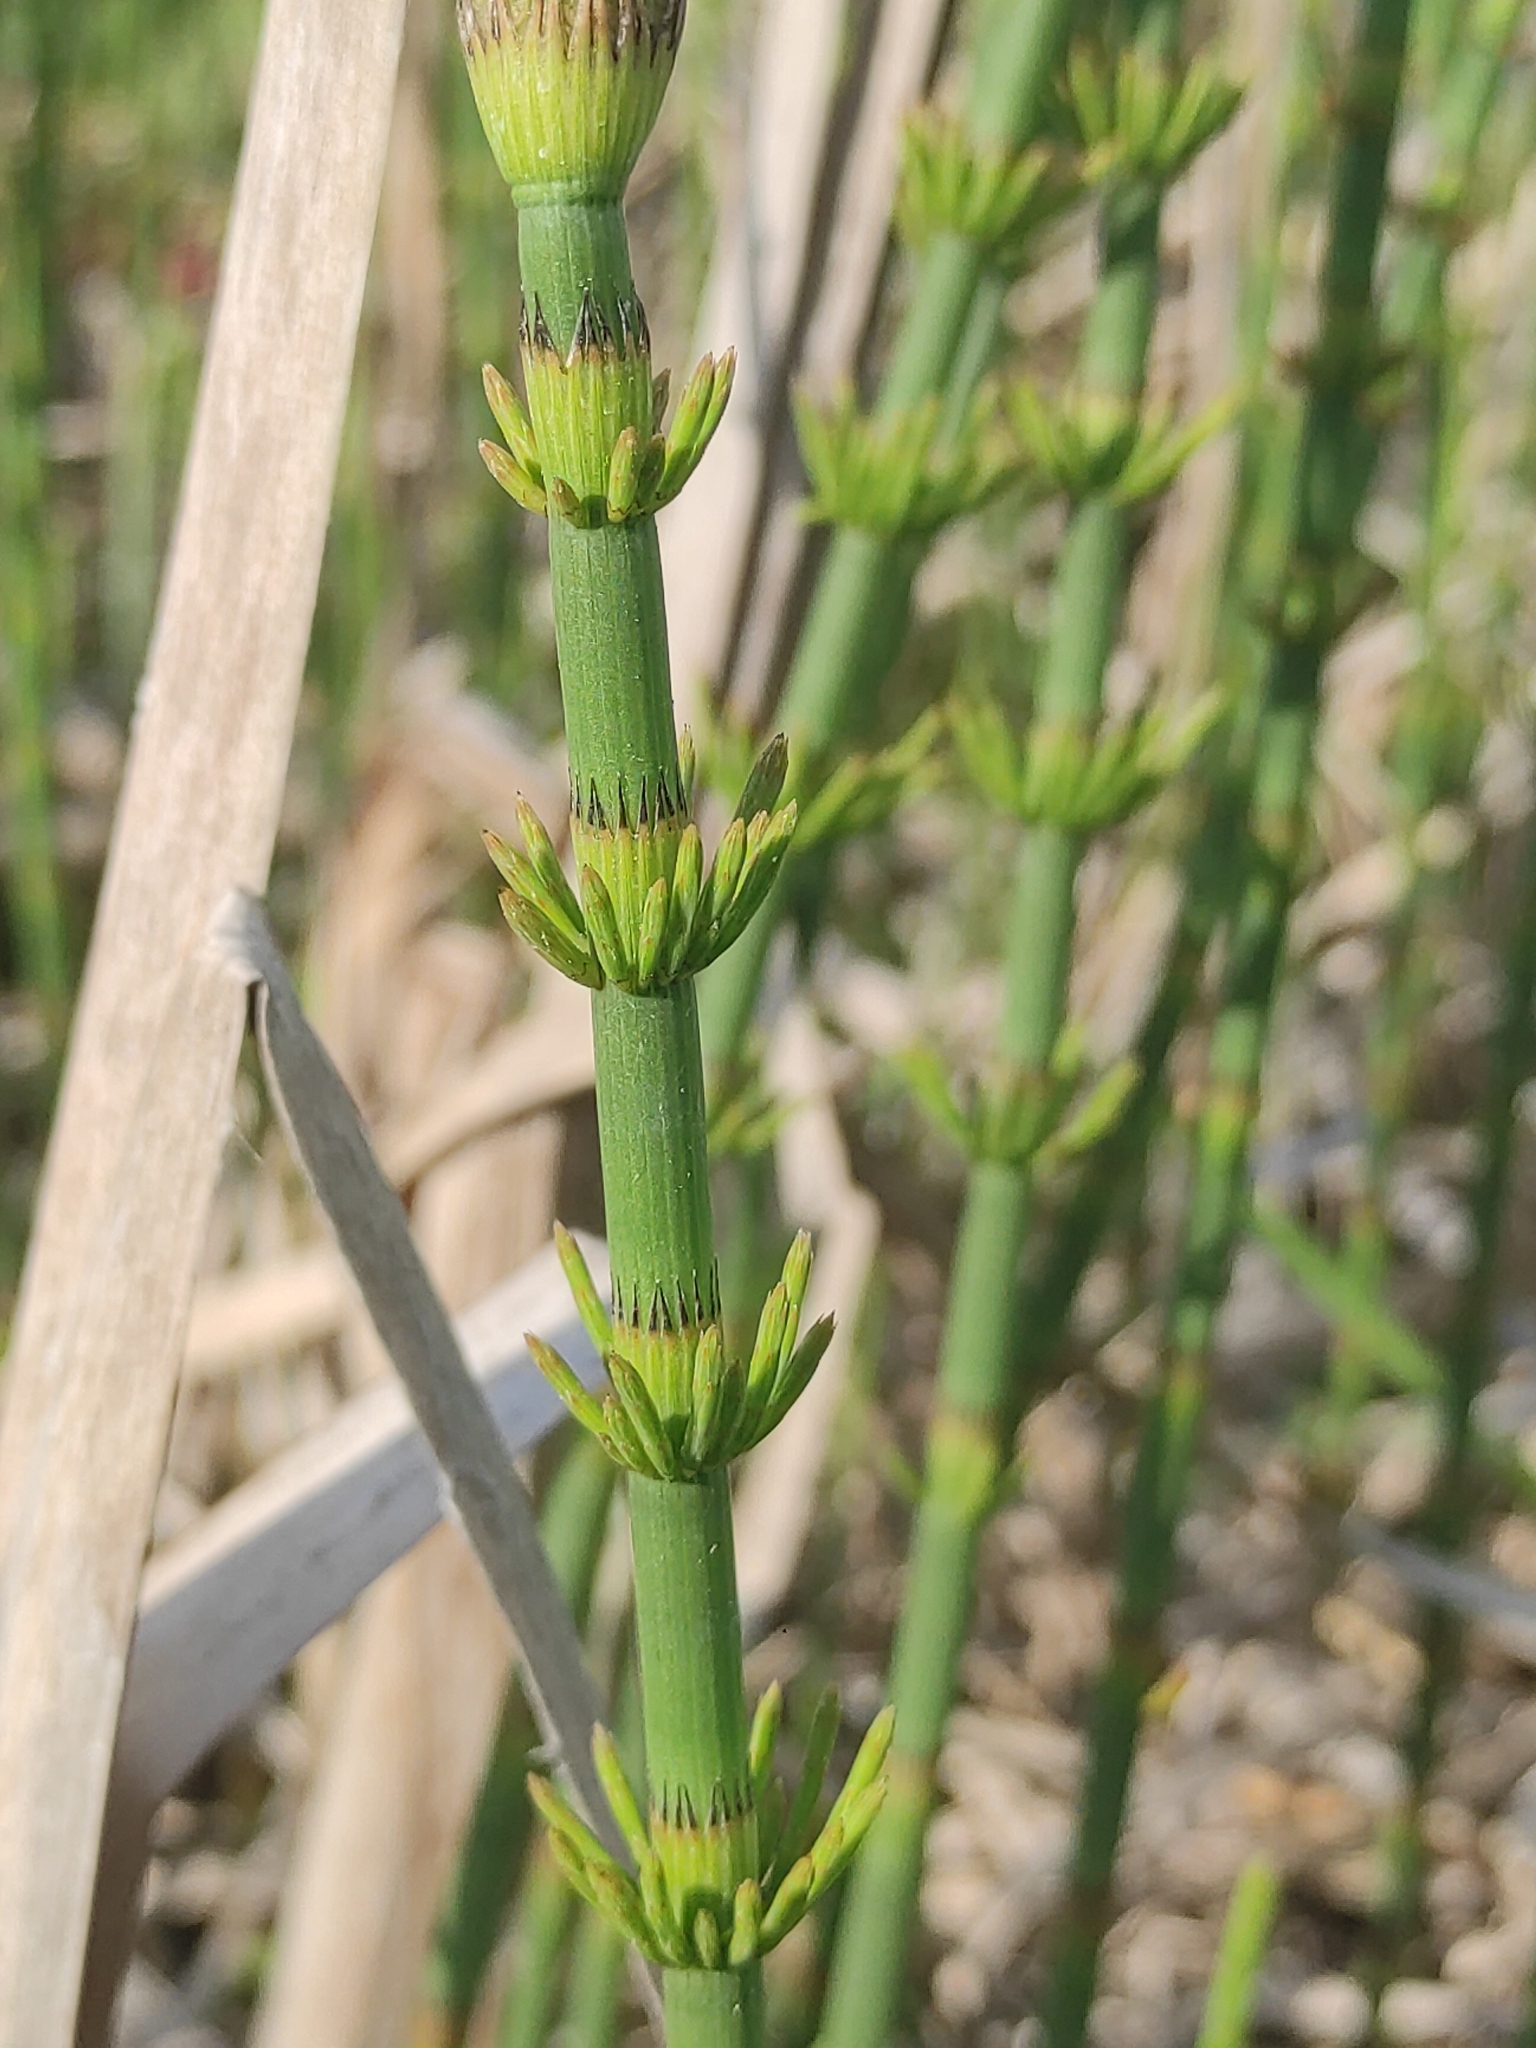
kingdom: Plantae
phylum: Tracheophyta
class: Polypodiopsida
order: Equisetales
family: Equisetaceae
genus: Equisetum
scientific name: Equisetum fluviatile
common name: Water horsetail
